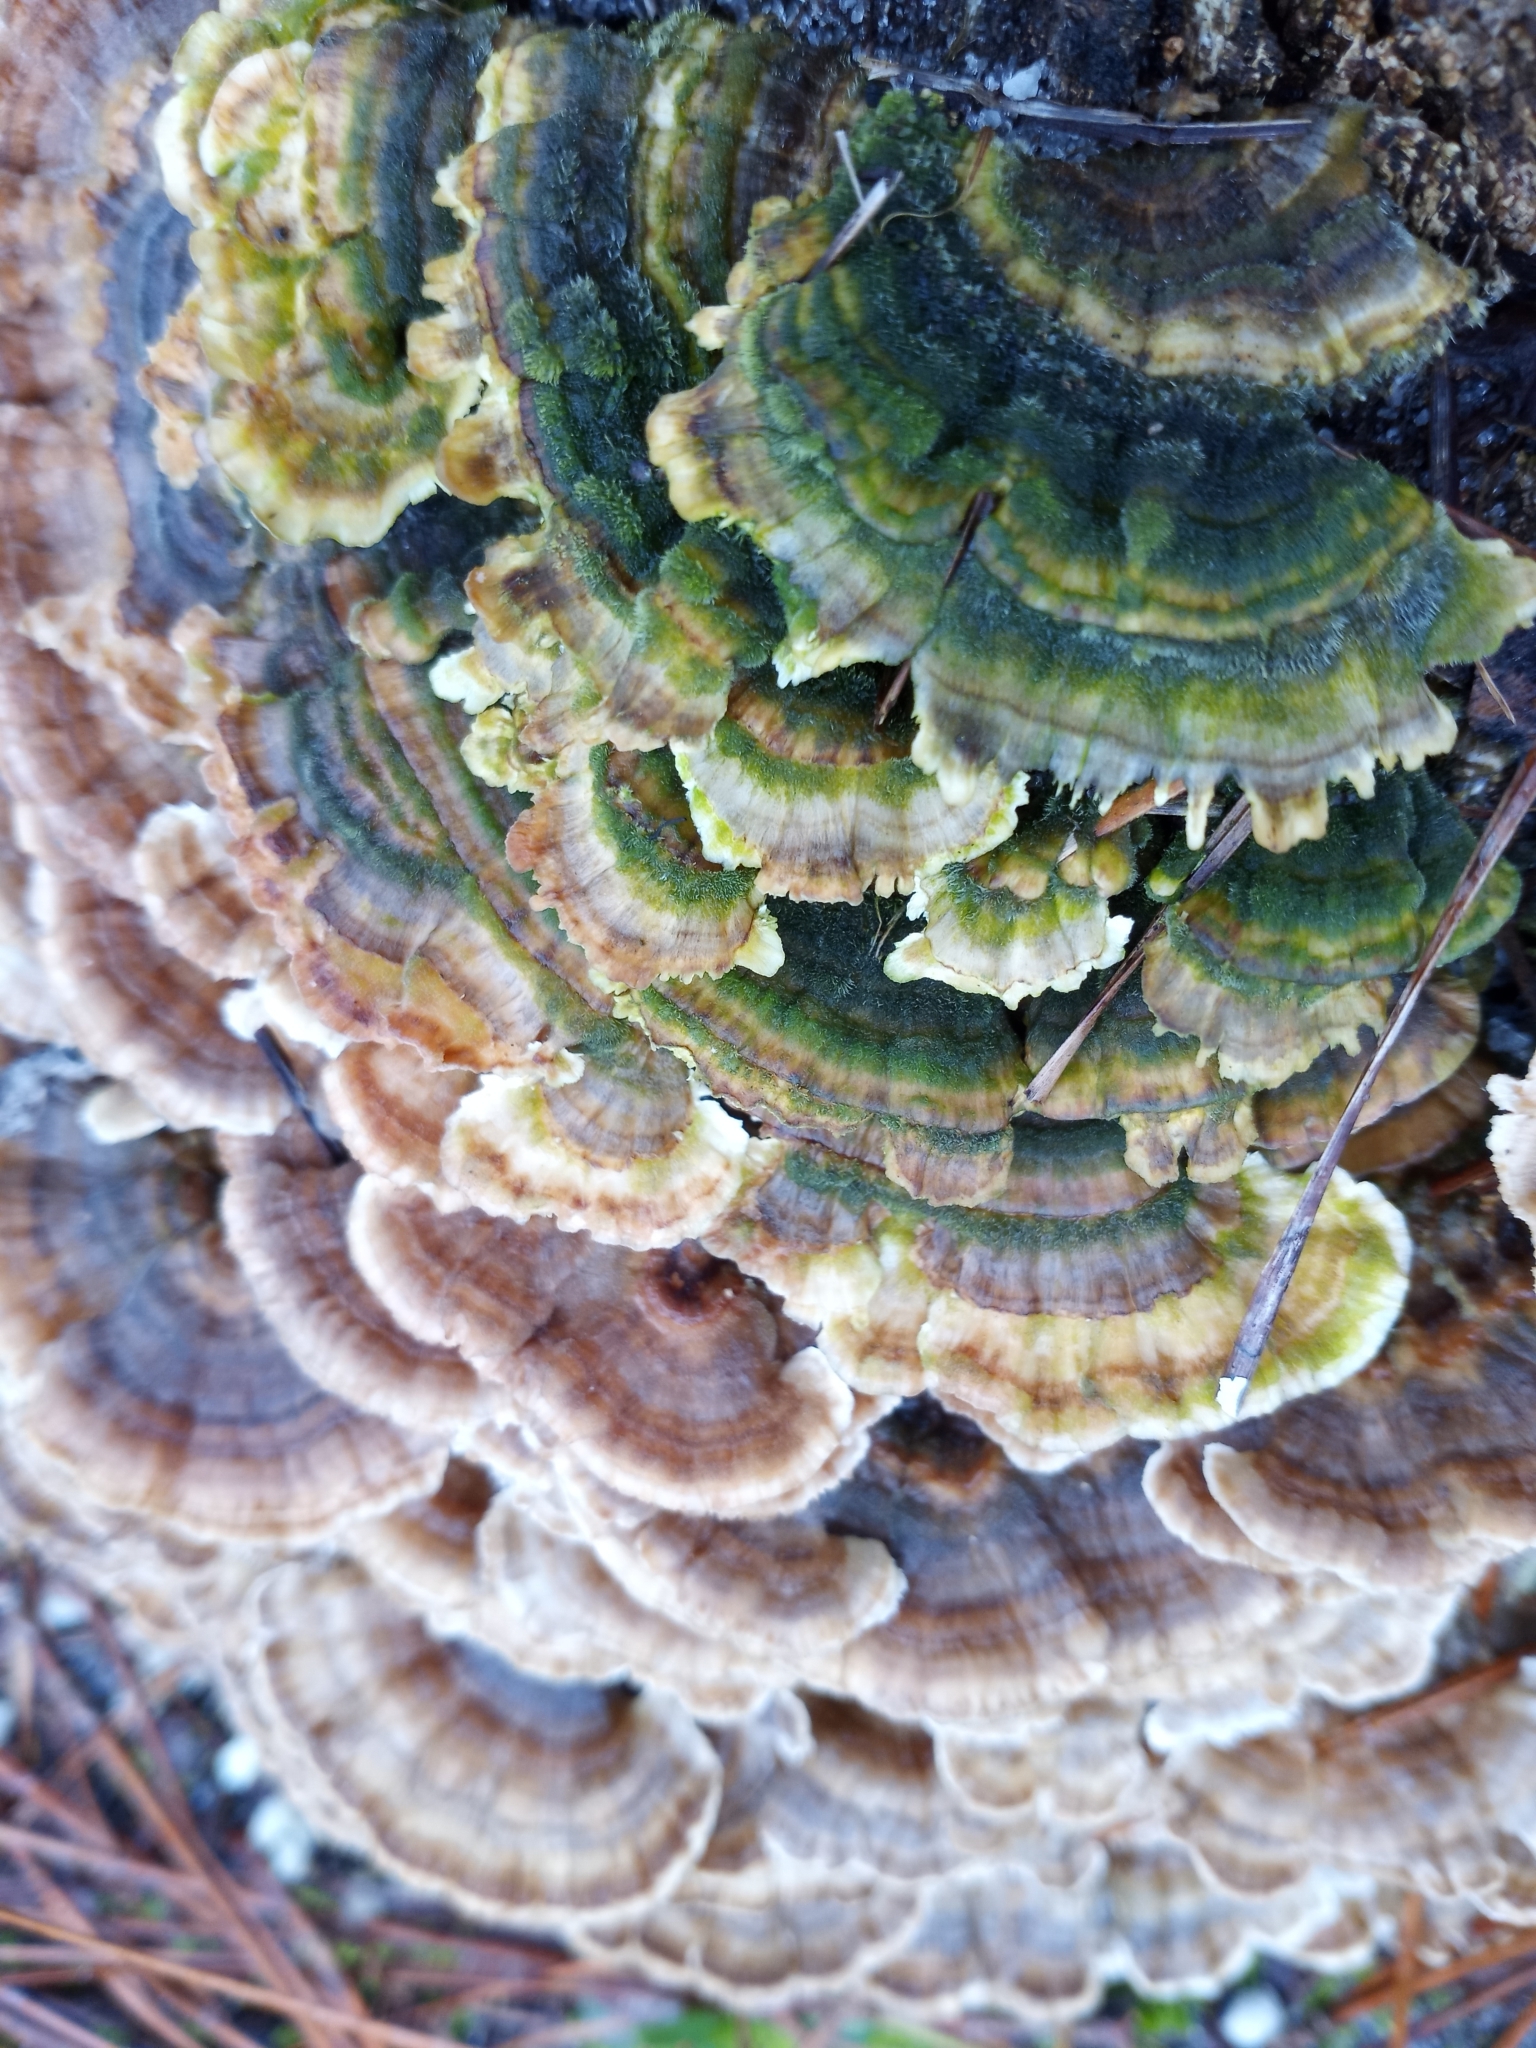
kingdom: Fungi
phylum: Basidiomycota
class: Agaricomycetes
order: Polyporales
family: Polyporaceae
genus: Trametes
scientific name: Trametes versicolor
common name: Turkeytail
